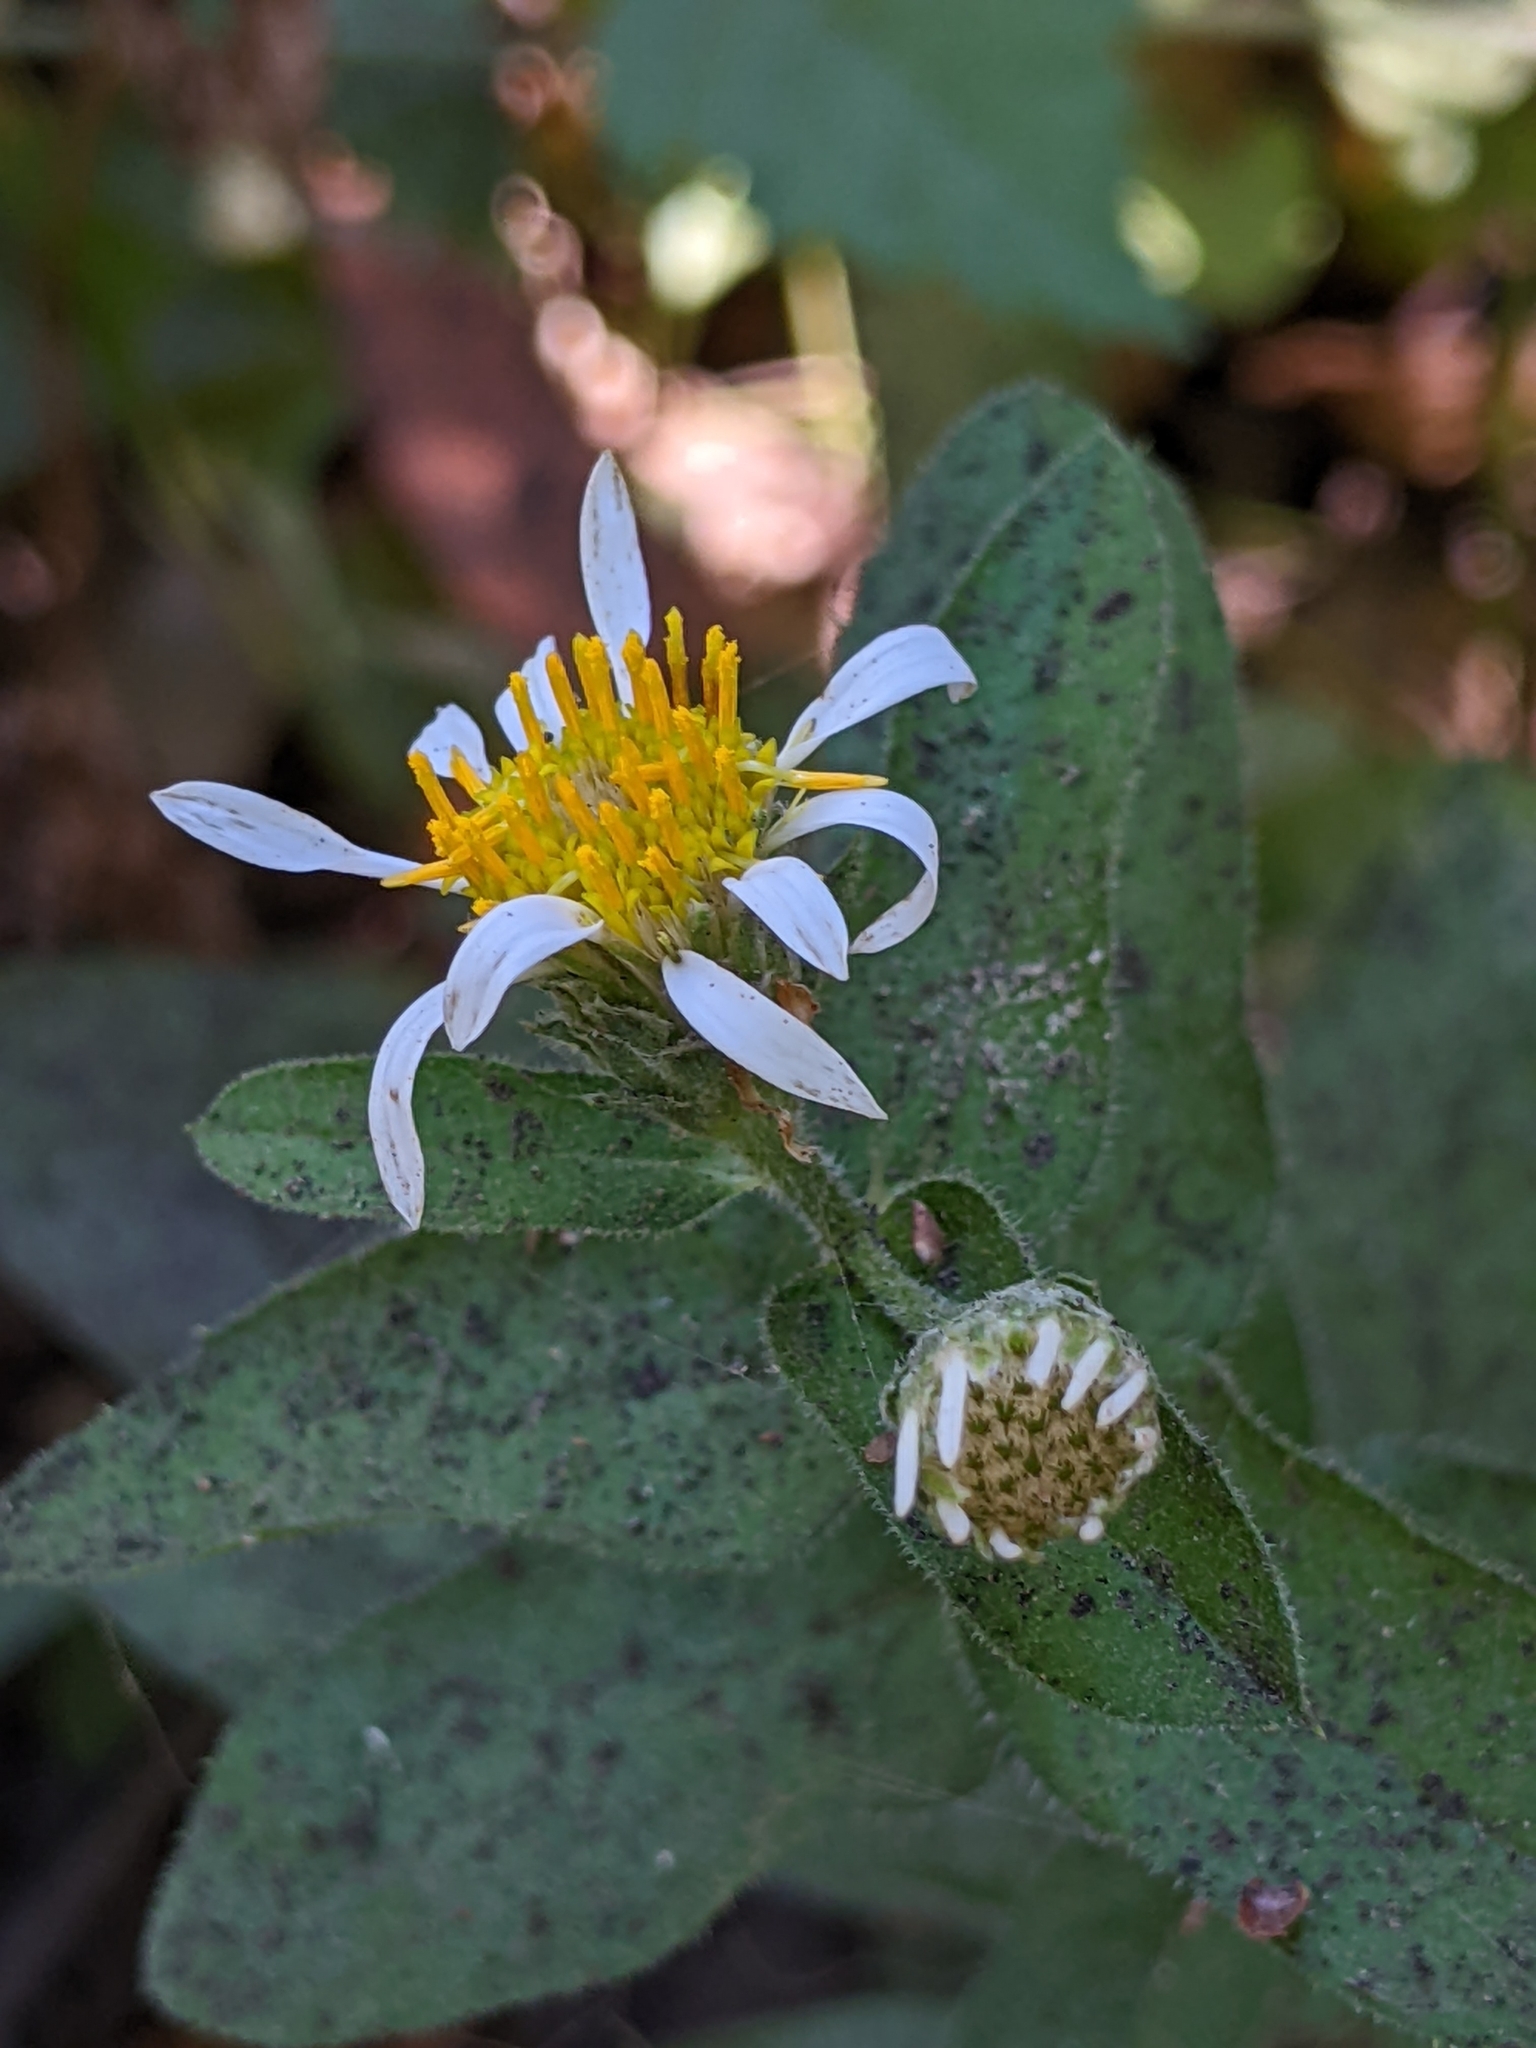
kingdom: Plantae
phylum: Tracheophyta
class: Magnoliopsida
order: Asterales
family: Asteraceae
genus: Eurybia
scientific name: Eurybia radulina
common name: Rough-leaved aster
